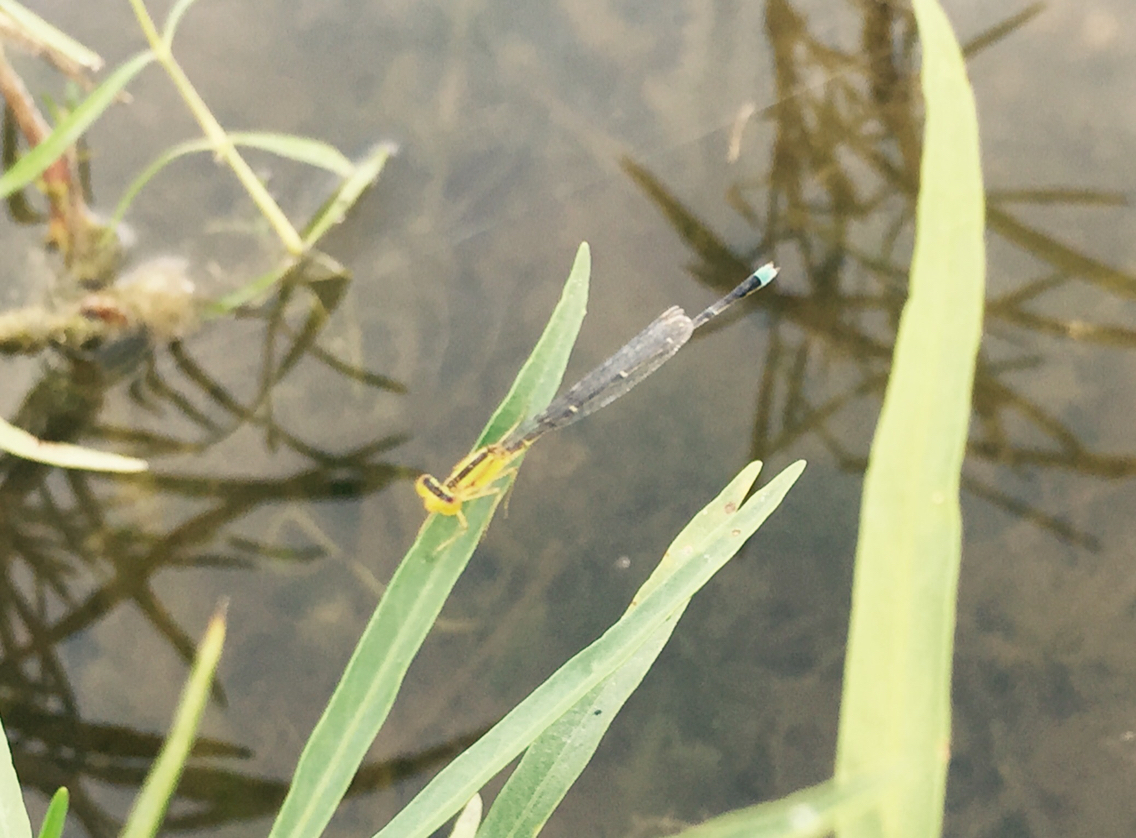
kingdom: Animalia
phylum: Arthropoda
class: Insecta
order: Odonata
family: Coenagrionidae
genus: Enallagma
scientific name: Enallagma vesperum
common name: Vesper bluet
